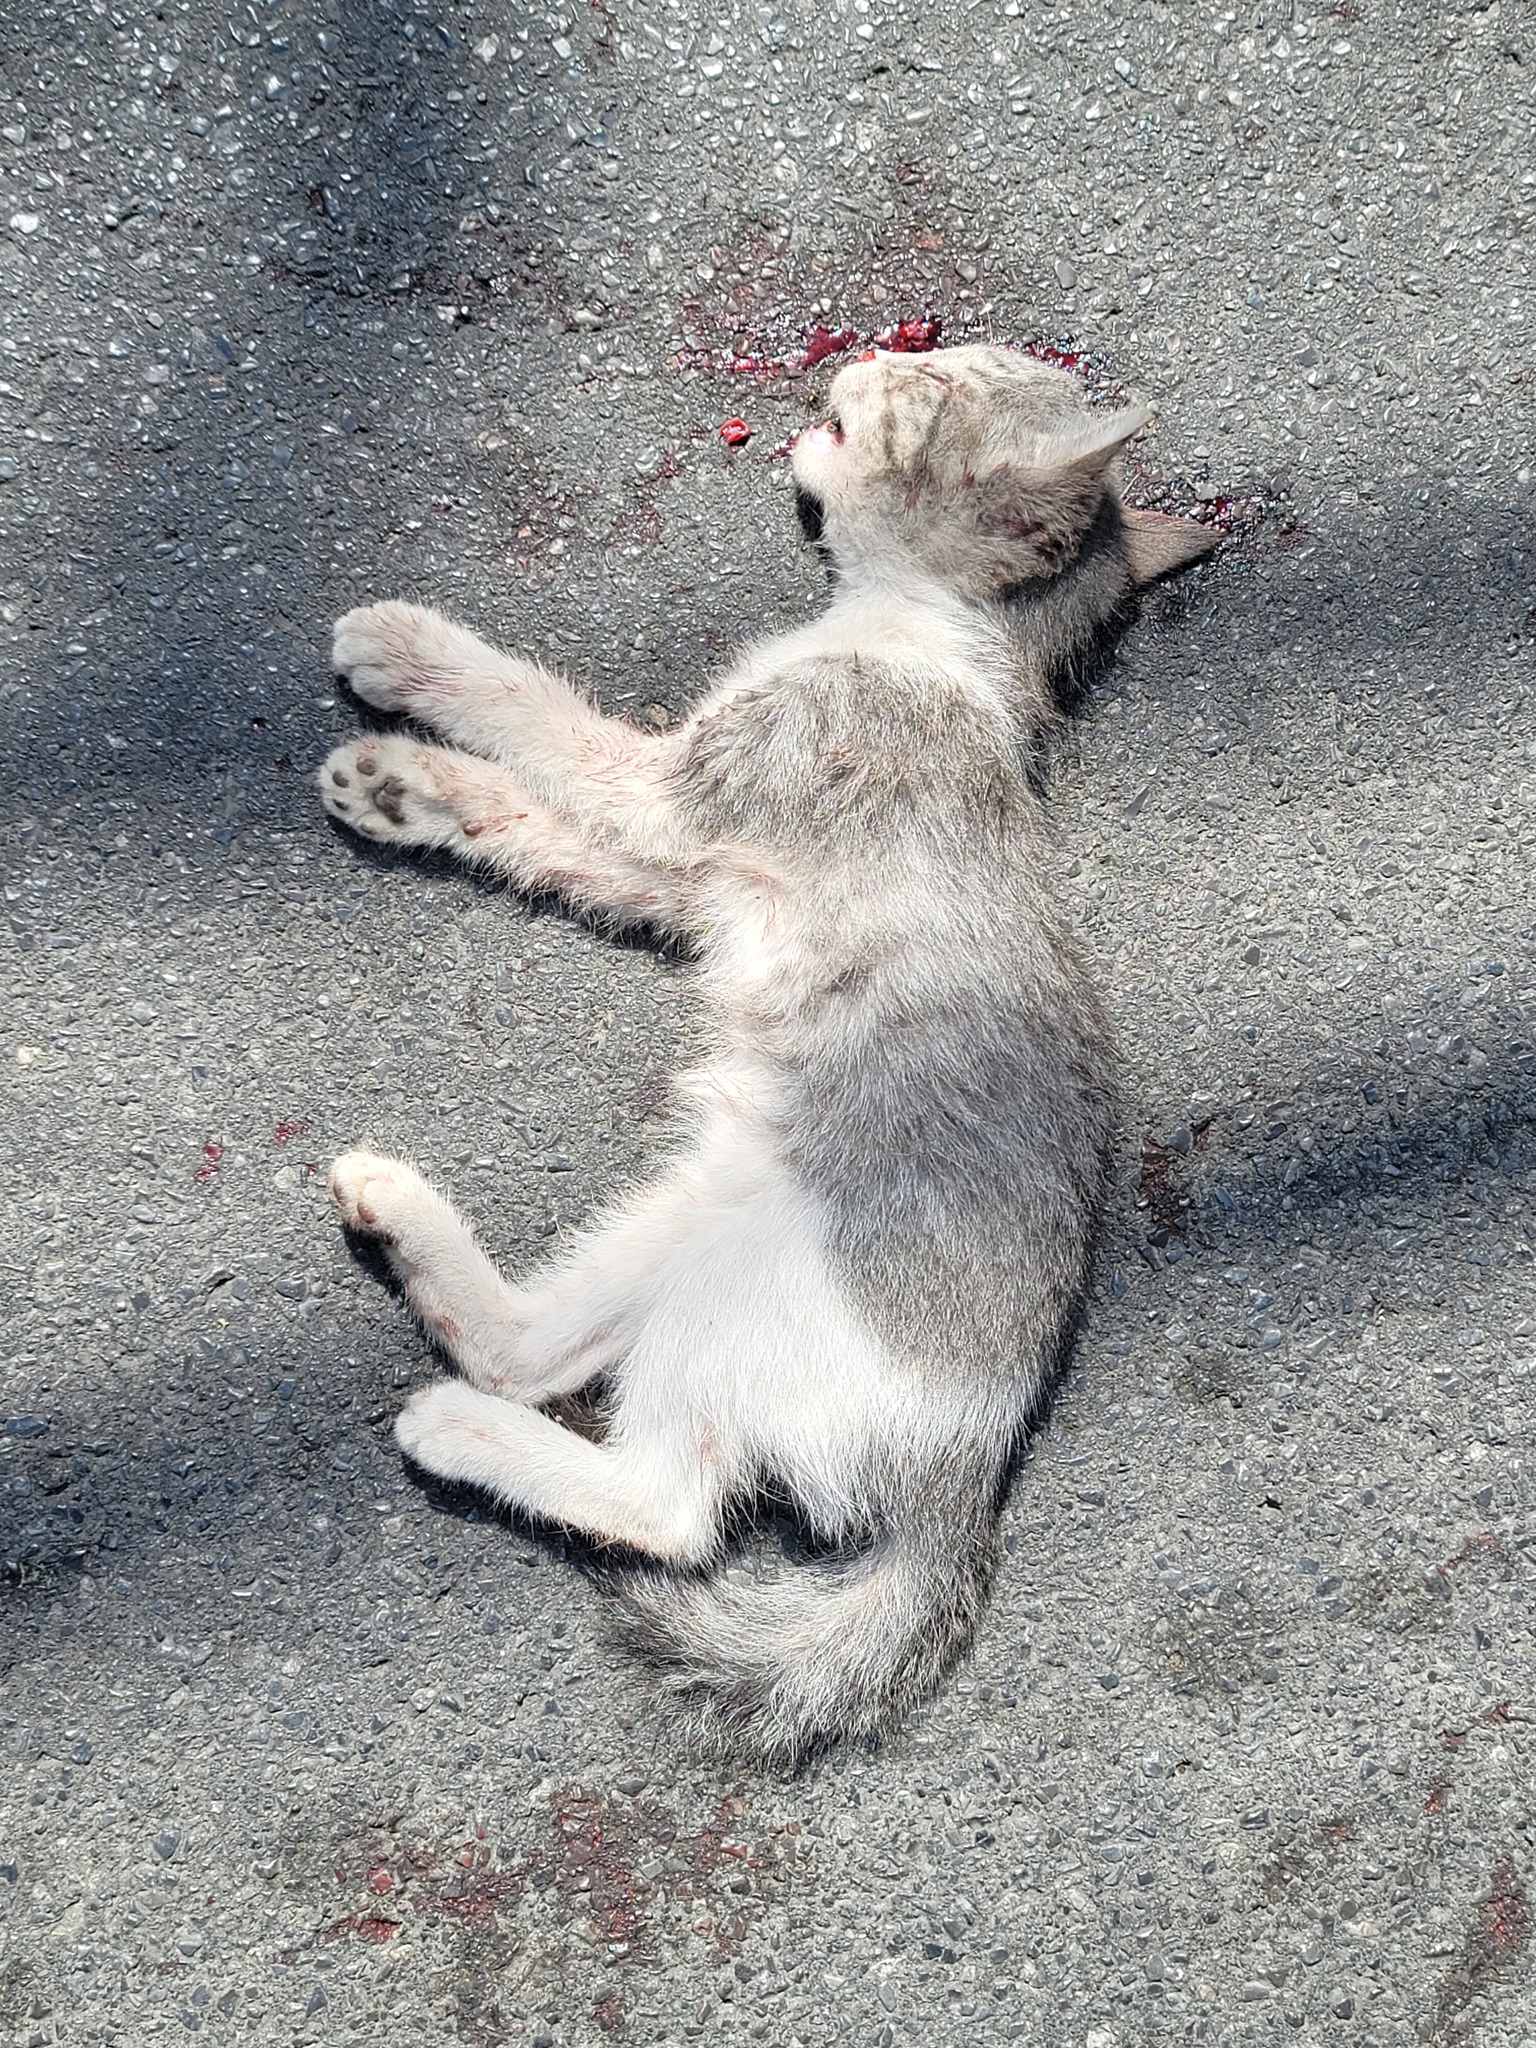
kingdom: Animalia
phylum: Chordata
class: Mammalia
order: Carnivora
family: Felidae
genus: Felis
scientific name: Felis catus
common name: Domestic cat
